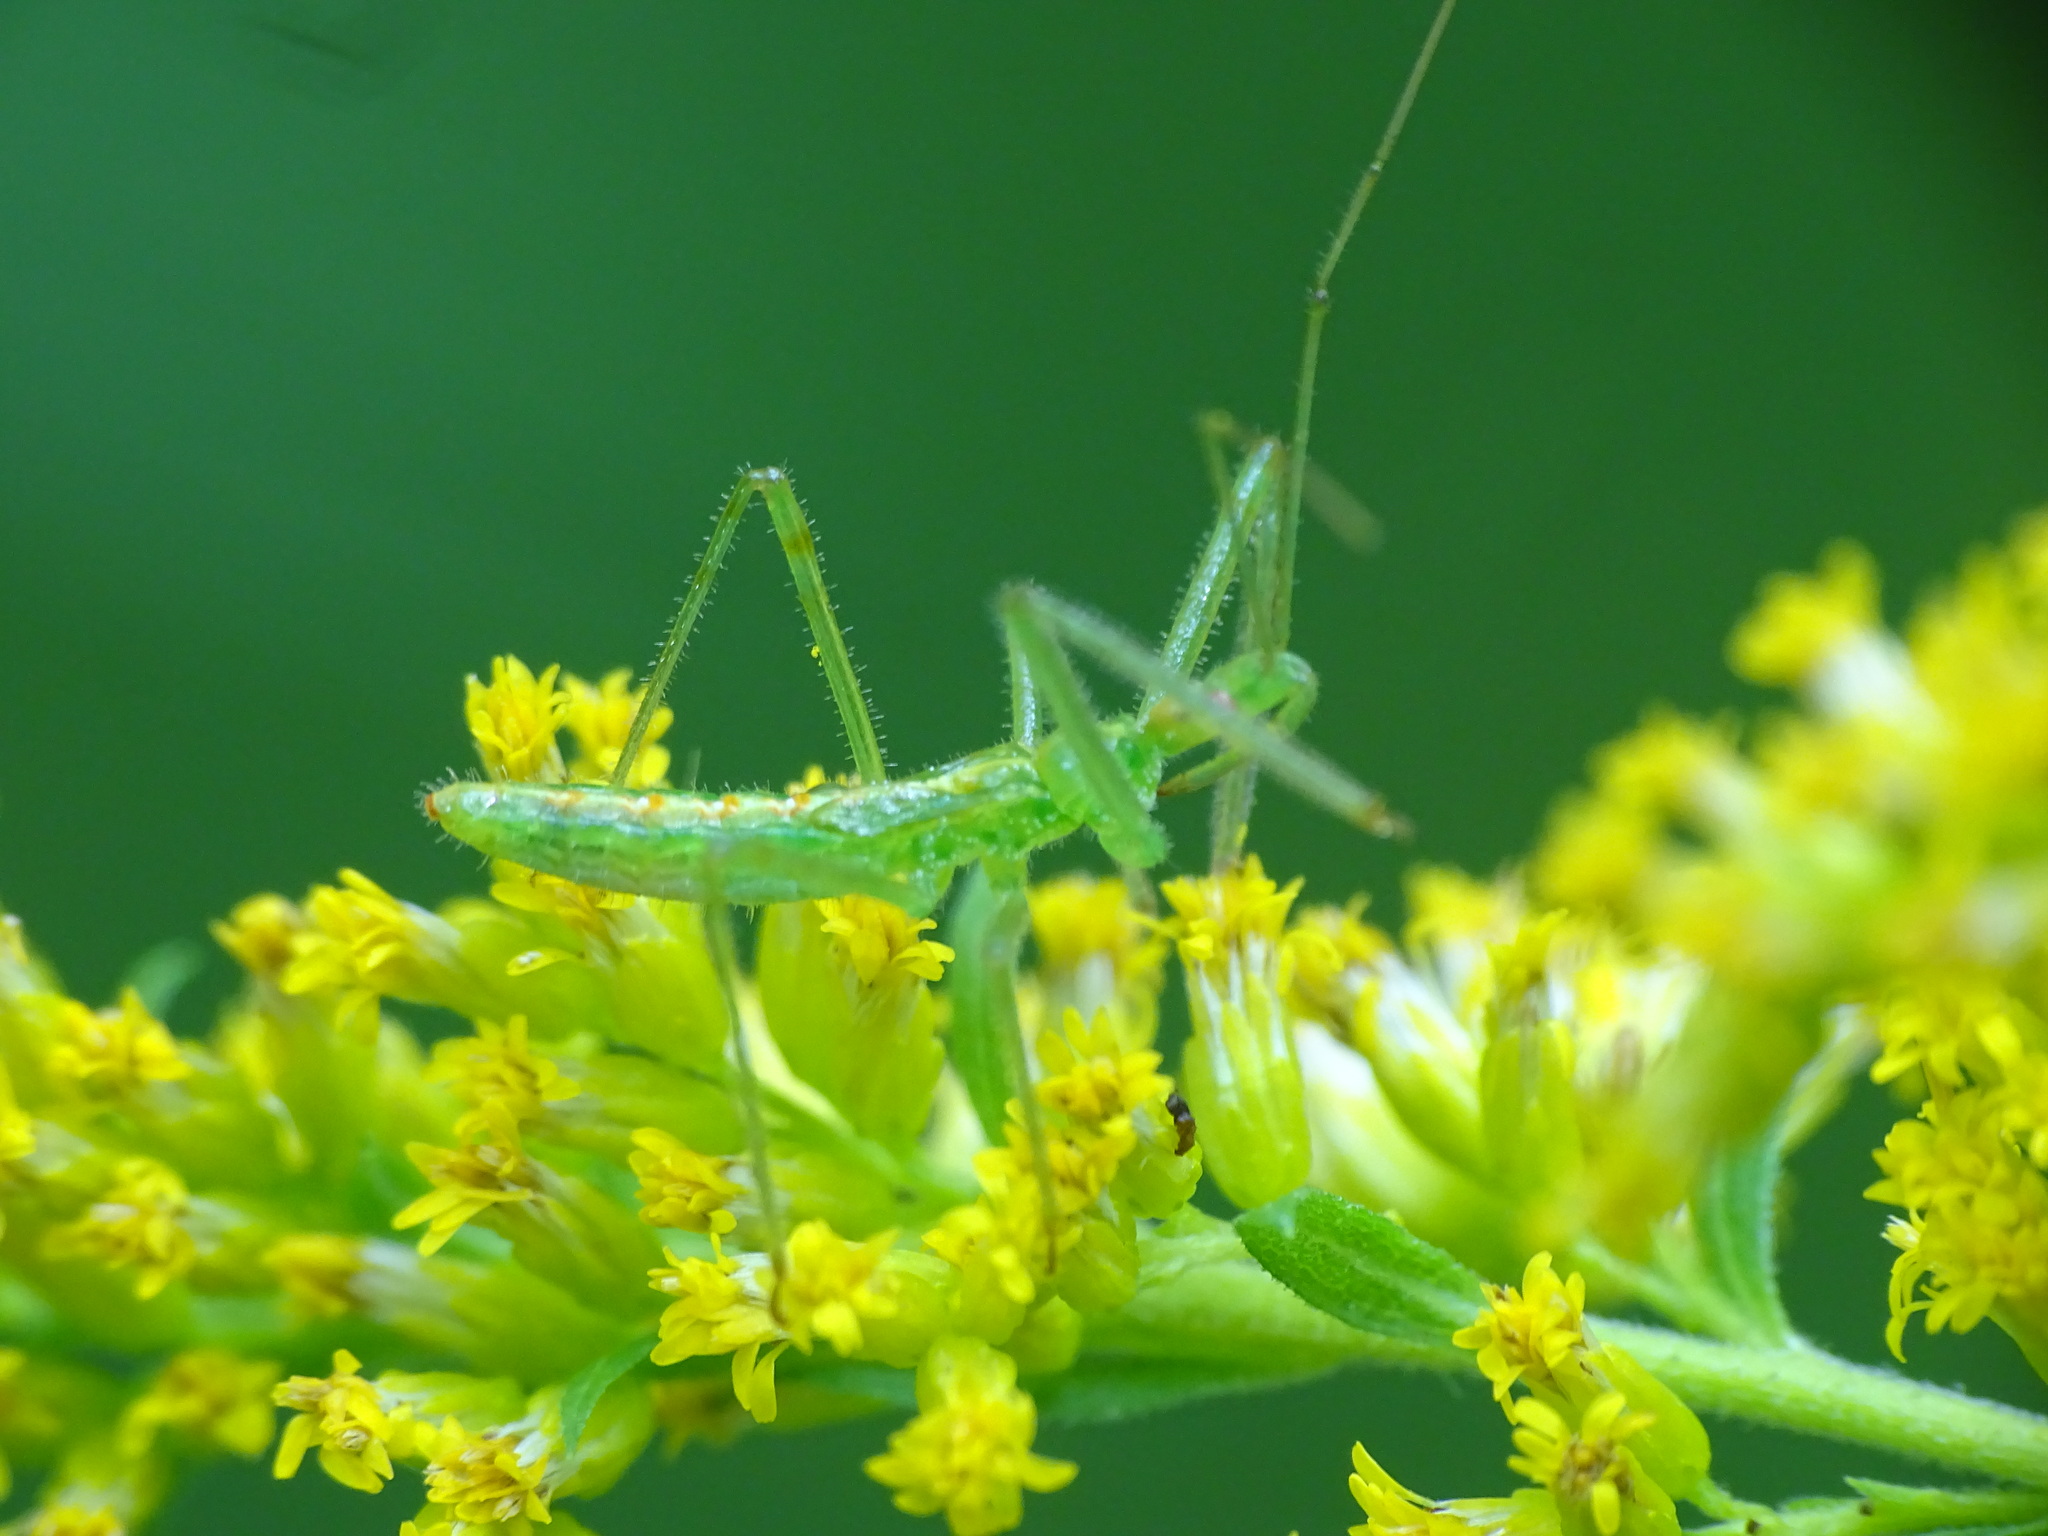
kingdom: Animalia
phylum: Arthropoda
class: Insecta
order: Hemiptera
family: Reduviidae
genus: Zelus
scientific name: Zelus luridus
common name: Pale green assassin bug
